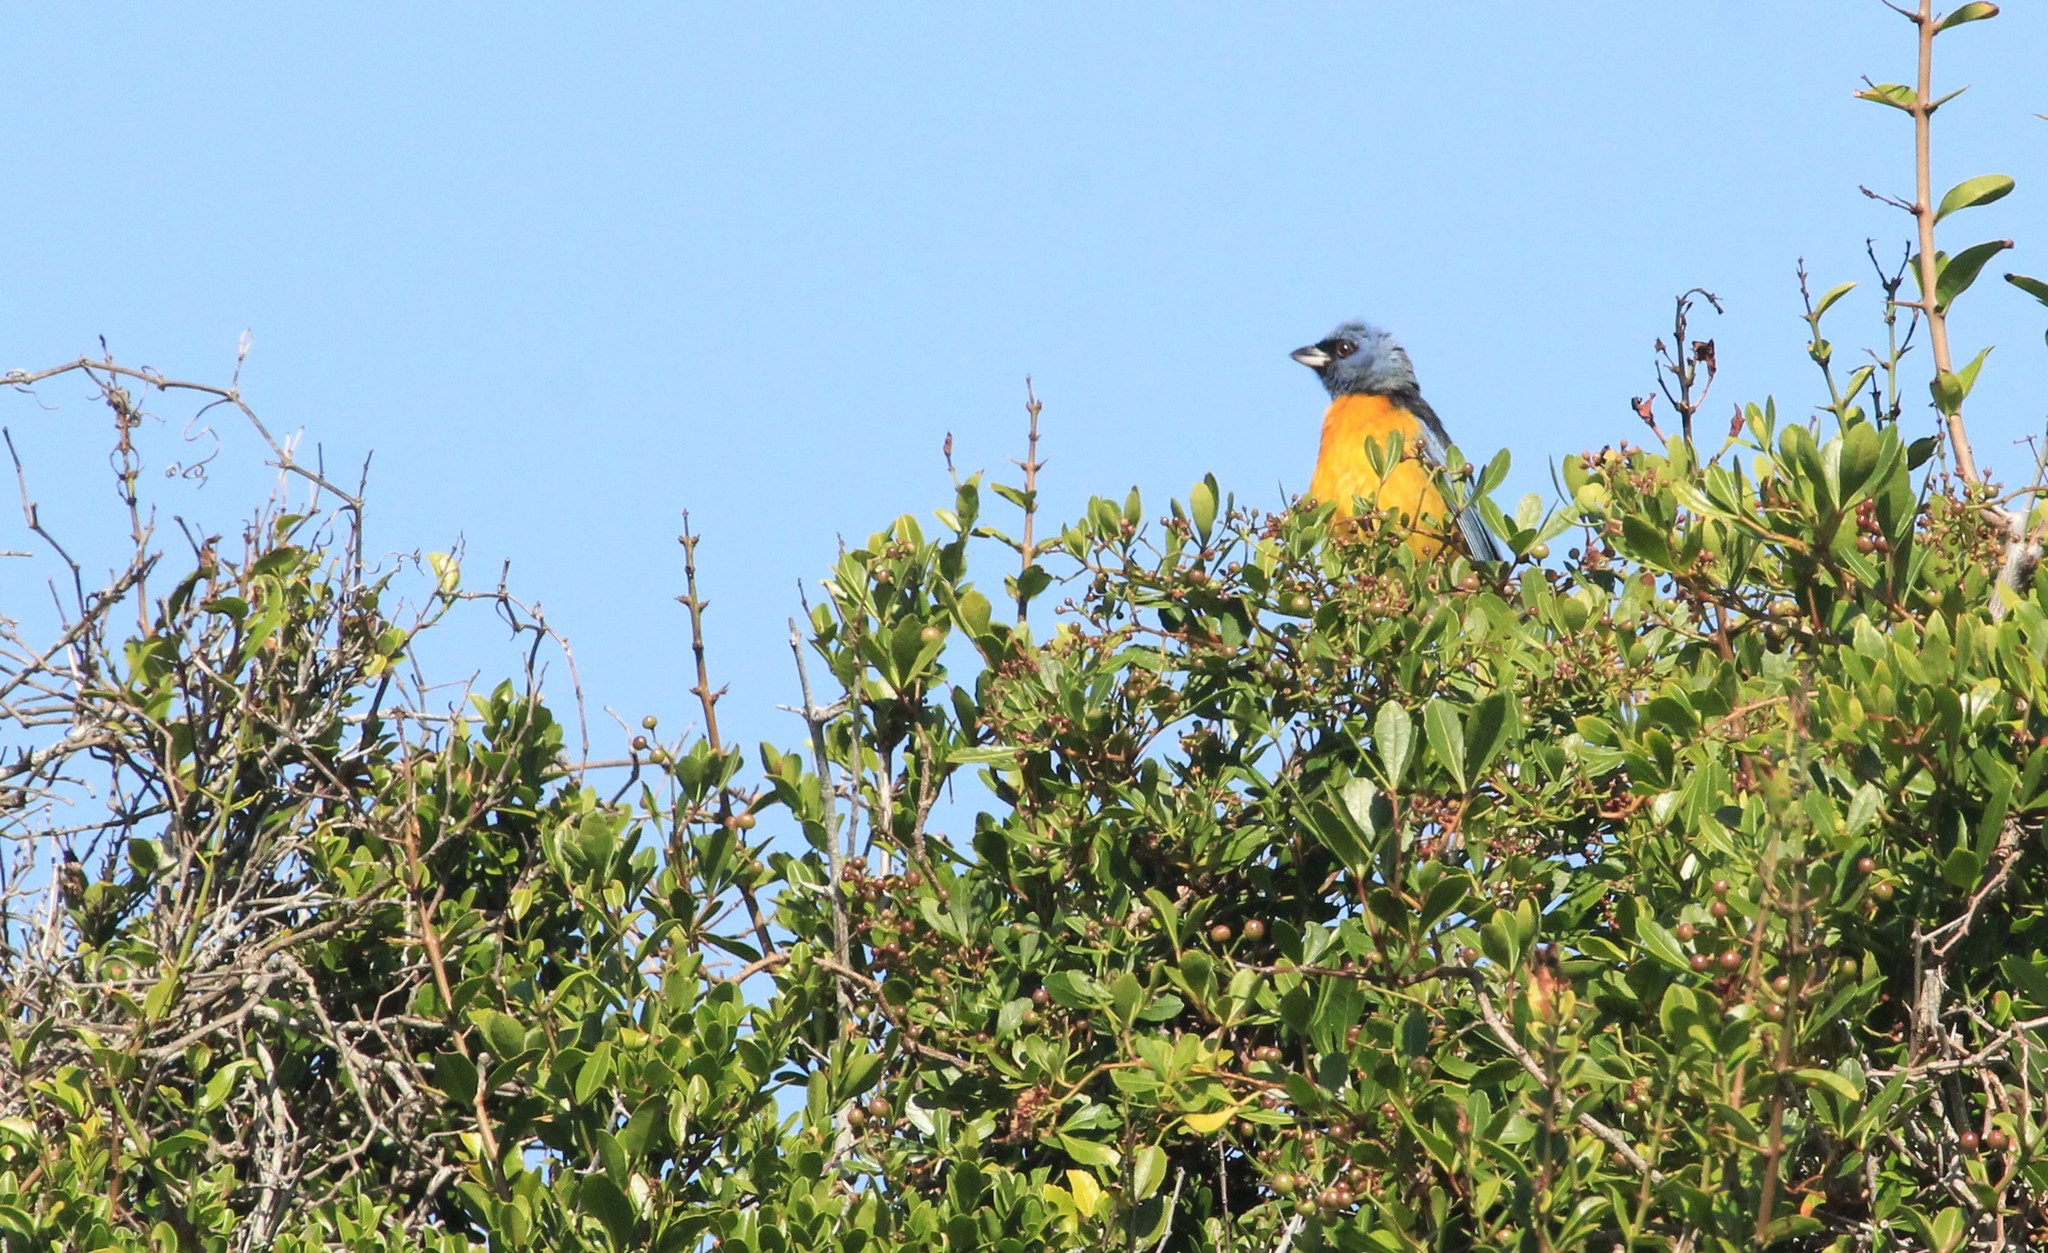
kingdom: Animalia
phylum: Chordata
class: Aves
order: Passeriformes
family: Thraupidae
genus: Rauenia
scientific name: Rauenia bonariensis
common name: Blue-and-yellow tanager
